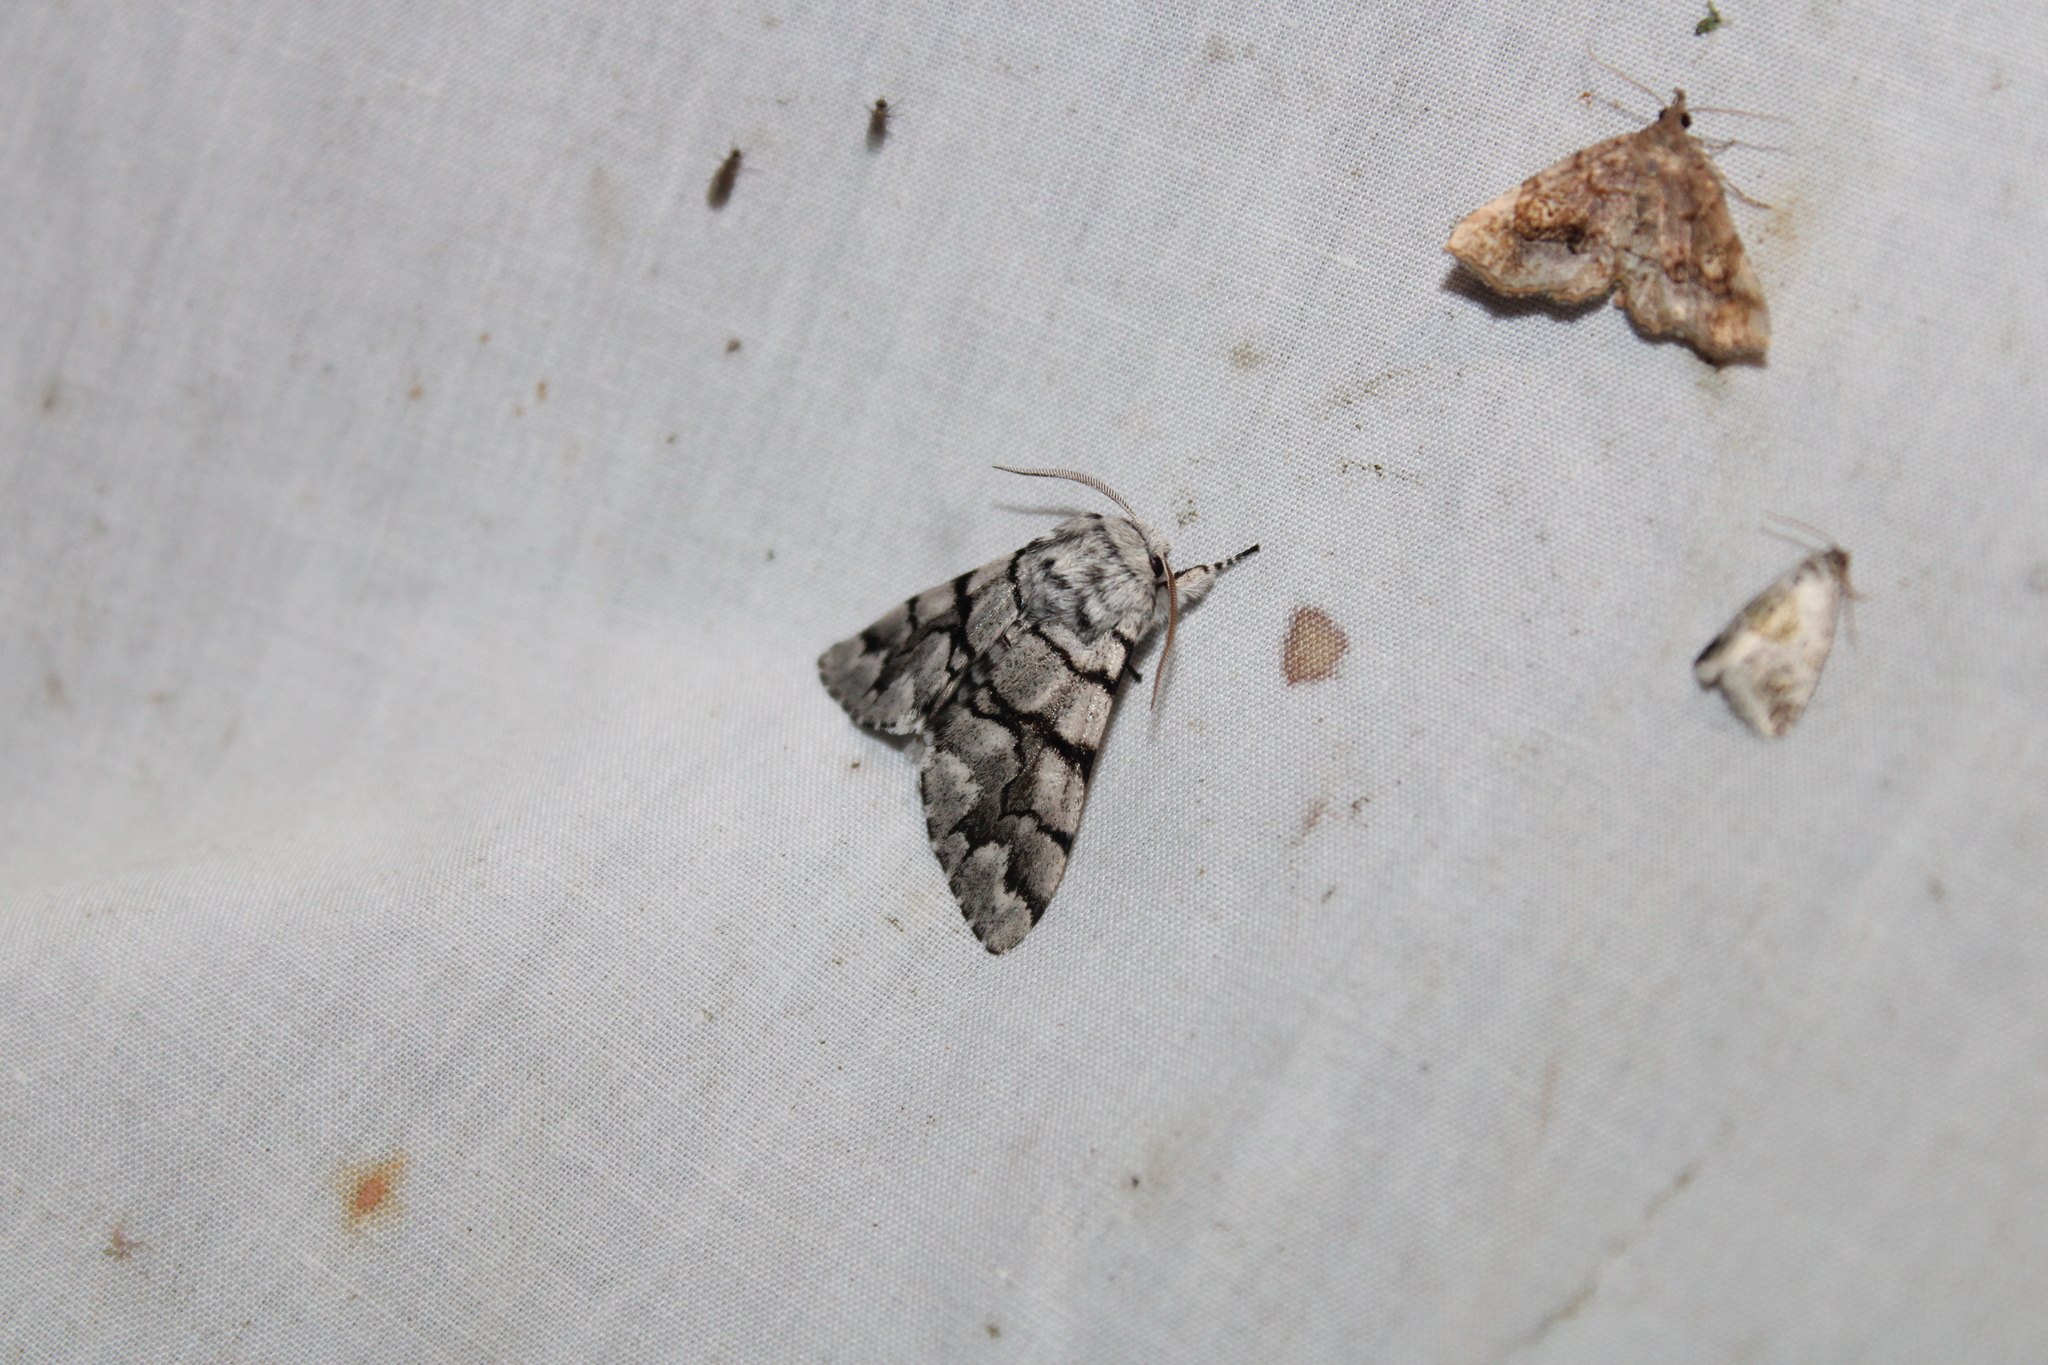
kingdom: Animalia
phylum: Arthropoda
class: Insecta
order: Lepidoptera
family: Noctuidae
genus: Panthea
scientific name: Panthea furcilla
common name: Eastern panthea moth
